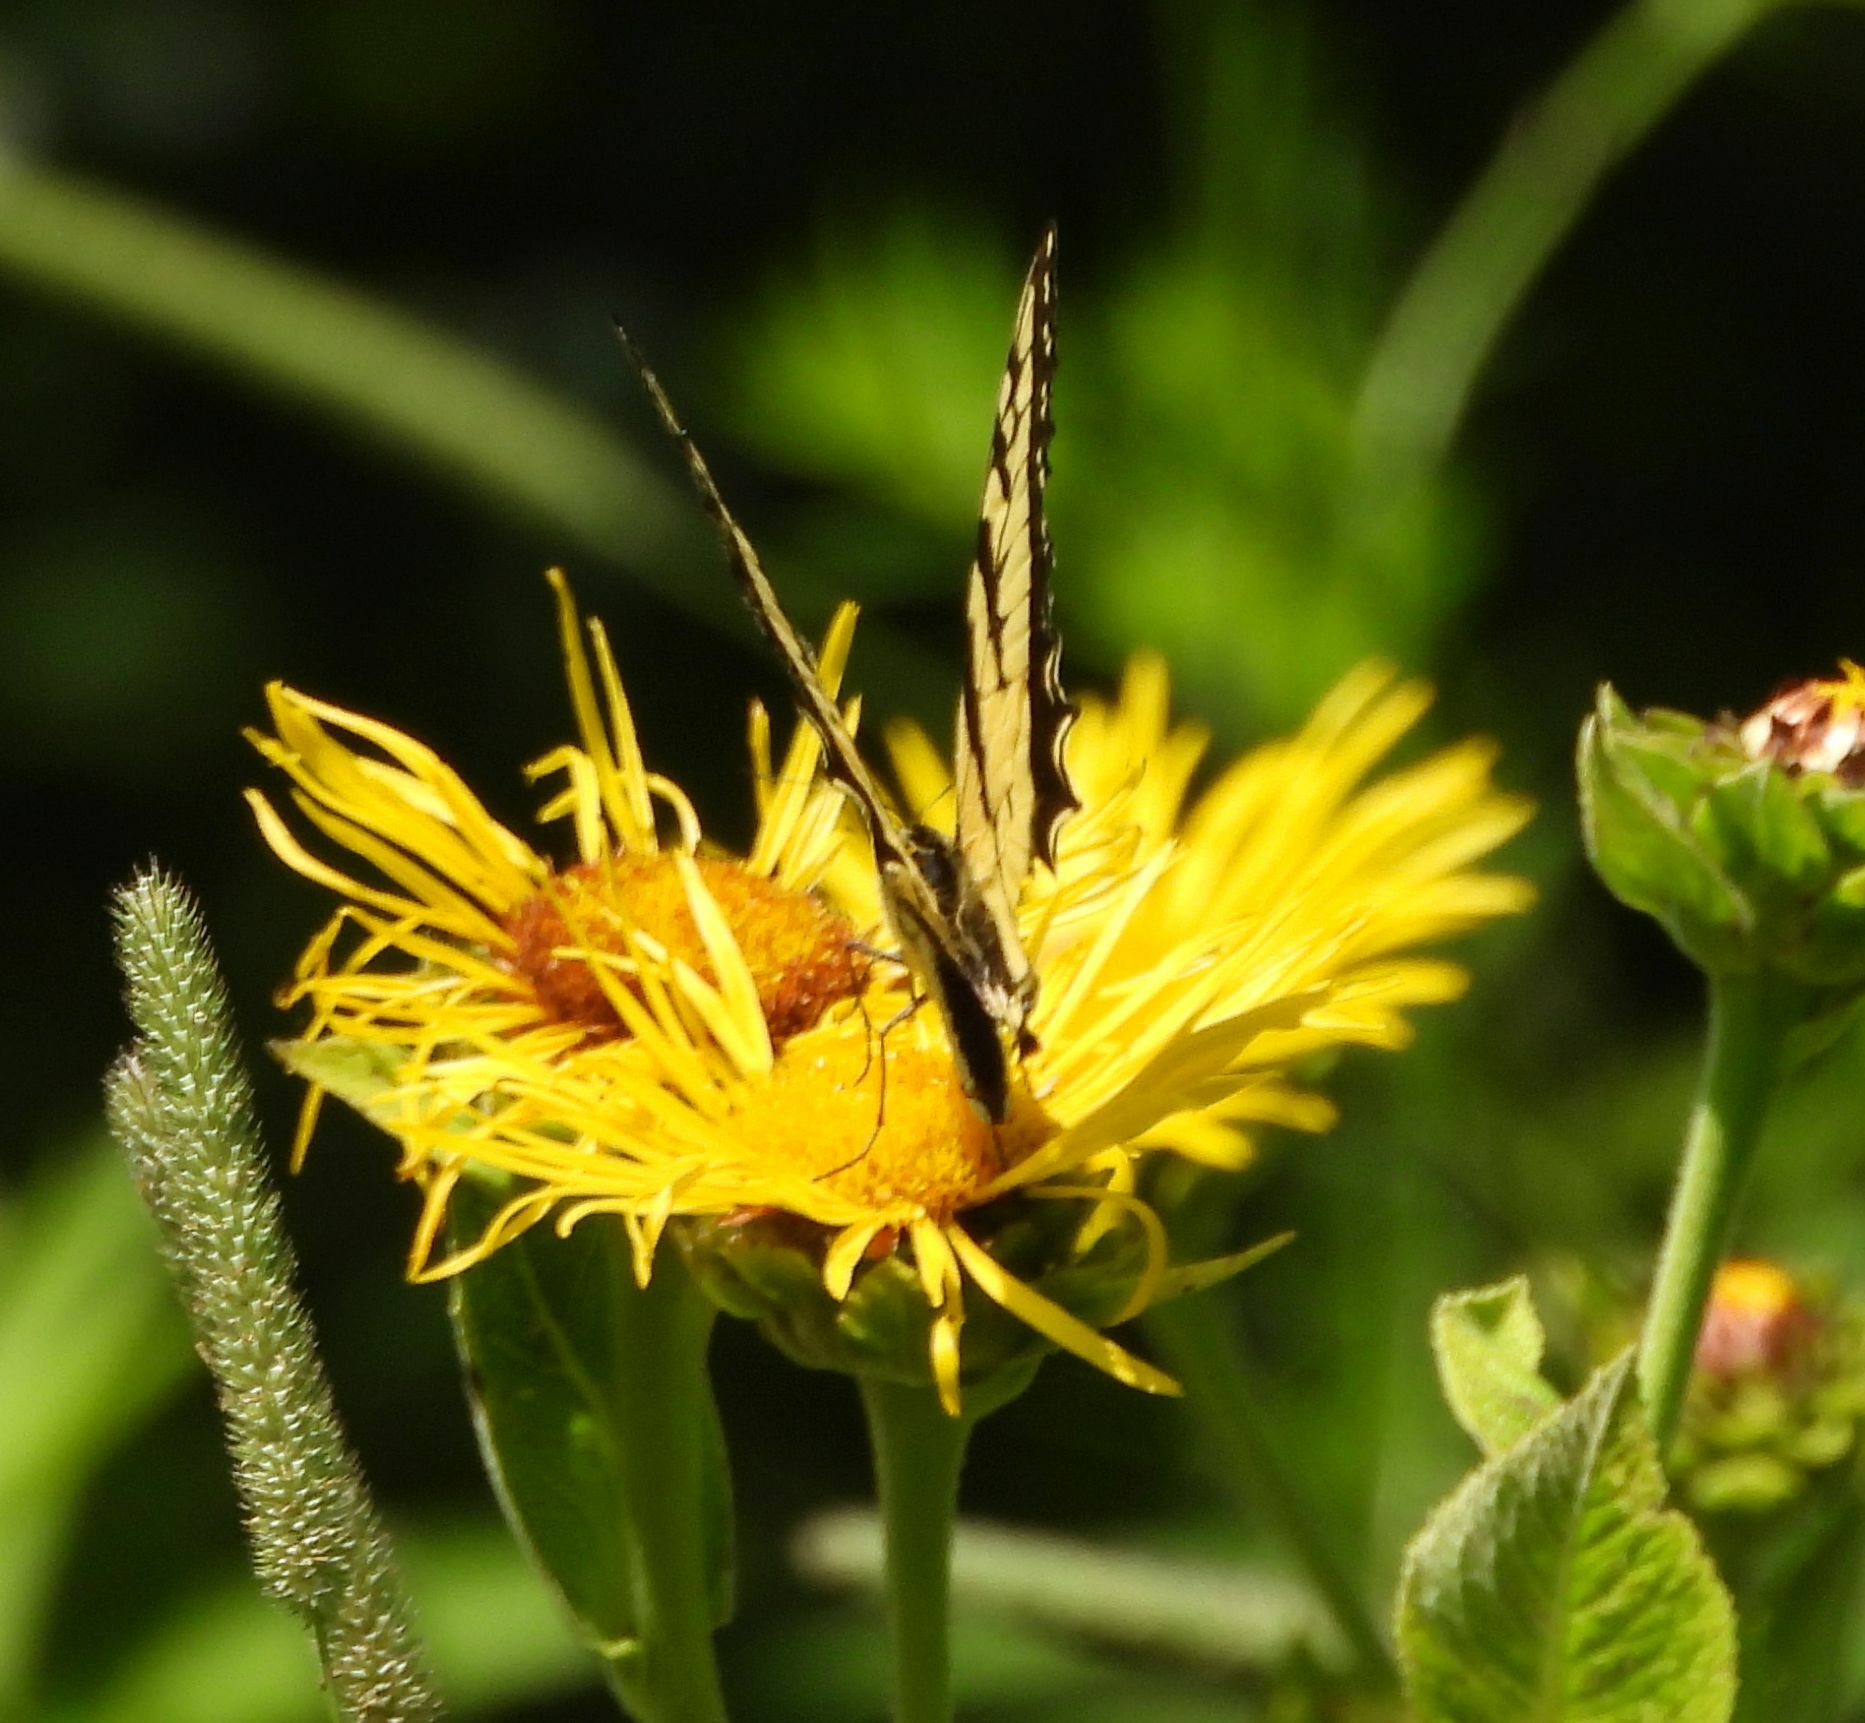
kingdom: Animalia
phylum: Arthropoda
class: Insecta
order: Lepidoptera
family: Papilionidae
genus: Papilio
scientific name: Papilio
